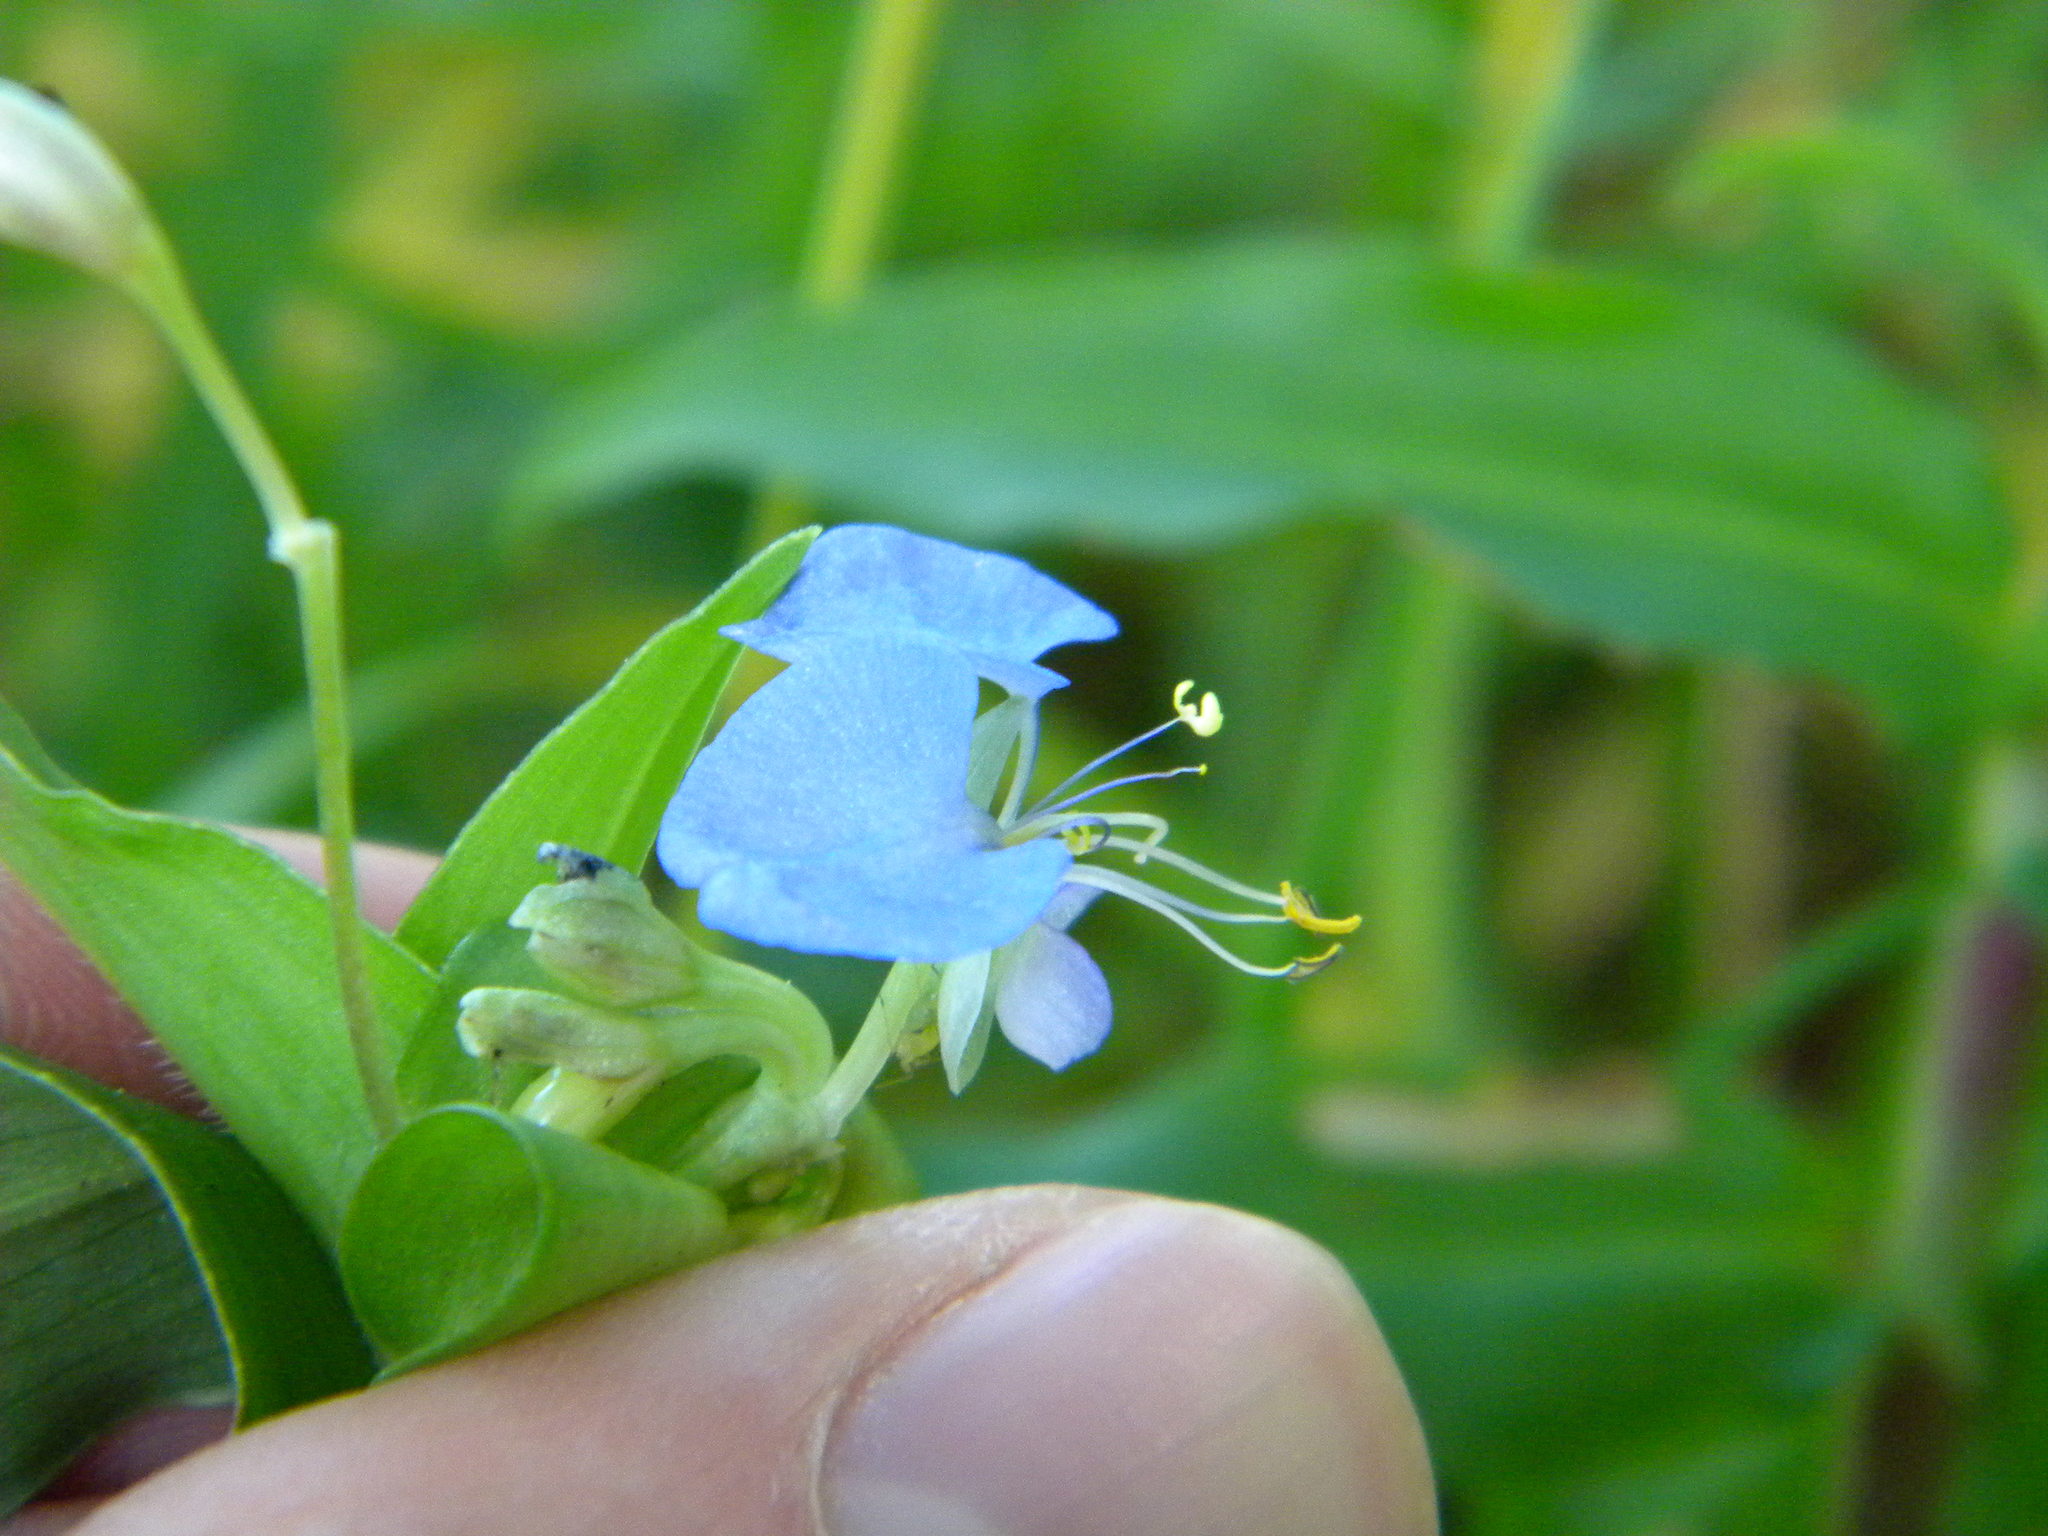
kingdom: Plantae
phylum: Tracheophyta
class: Liliopsida
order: Commelinales
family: Commelinaceae
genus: Commelina
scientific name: Commelina diffusa
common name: Climbing dayflower
